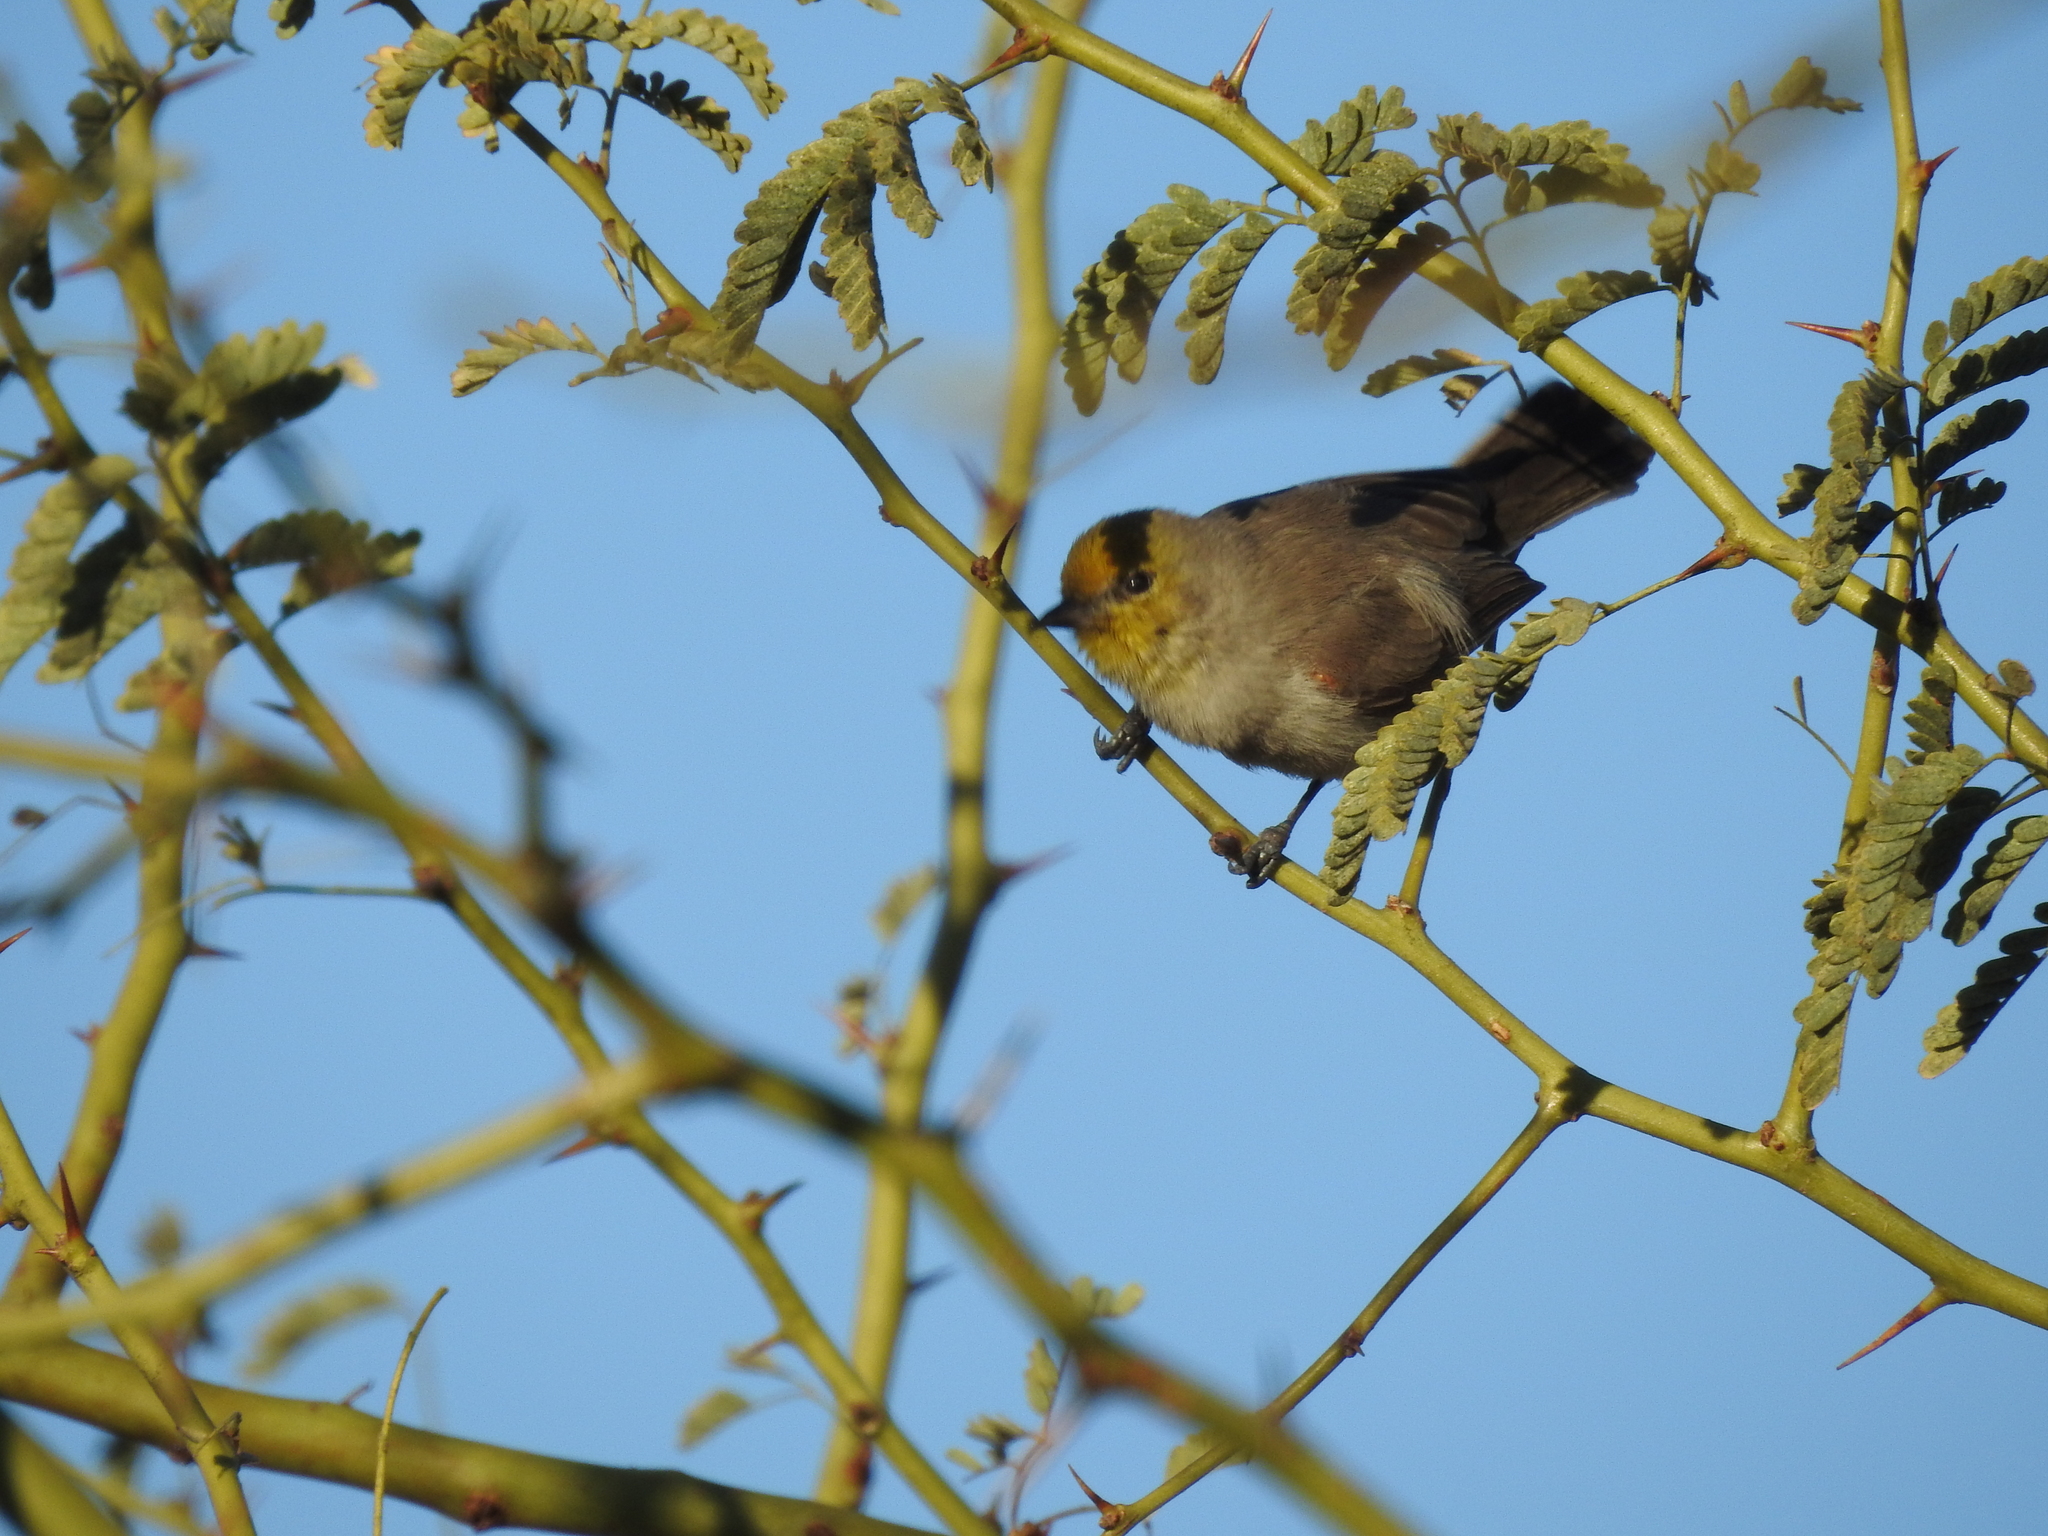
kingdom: Animalia
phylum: Chordata
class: Aves
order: Passeriformes
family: Remizidae
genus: Auriparus
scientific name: Auriparus flaviceps
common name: Verdin
